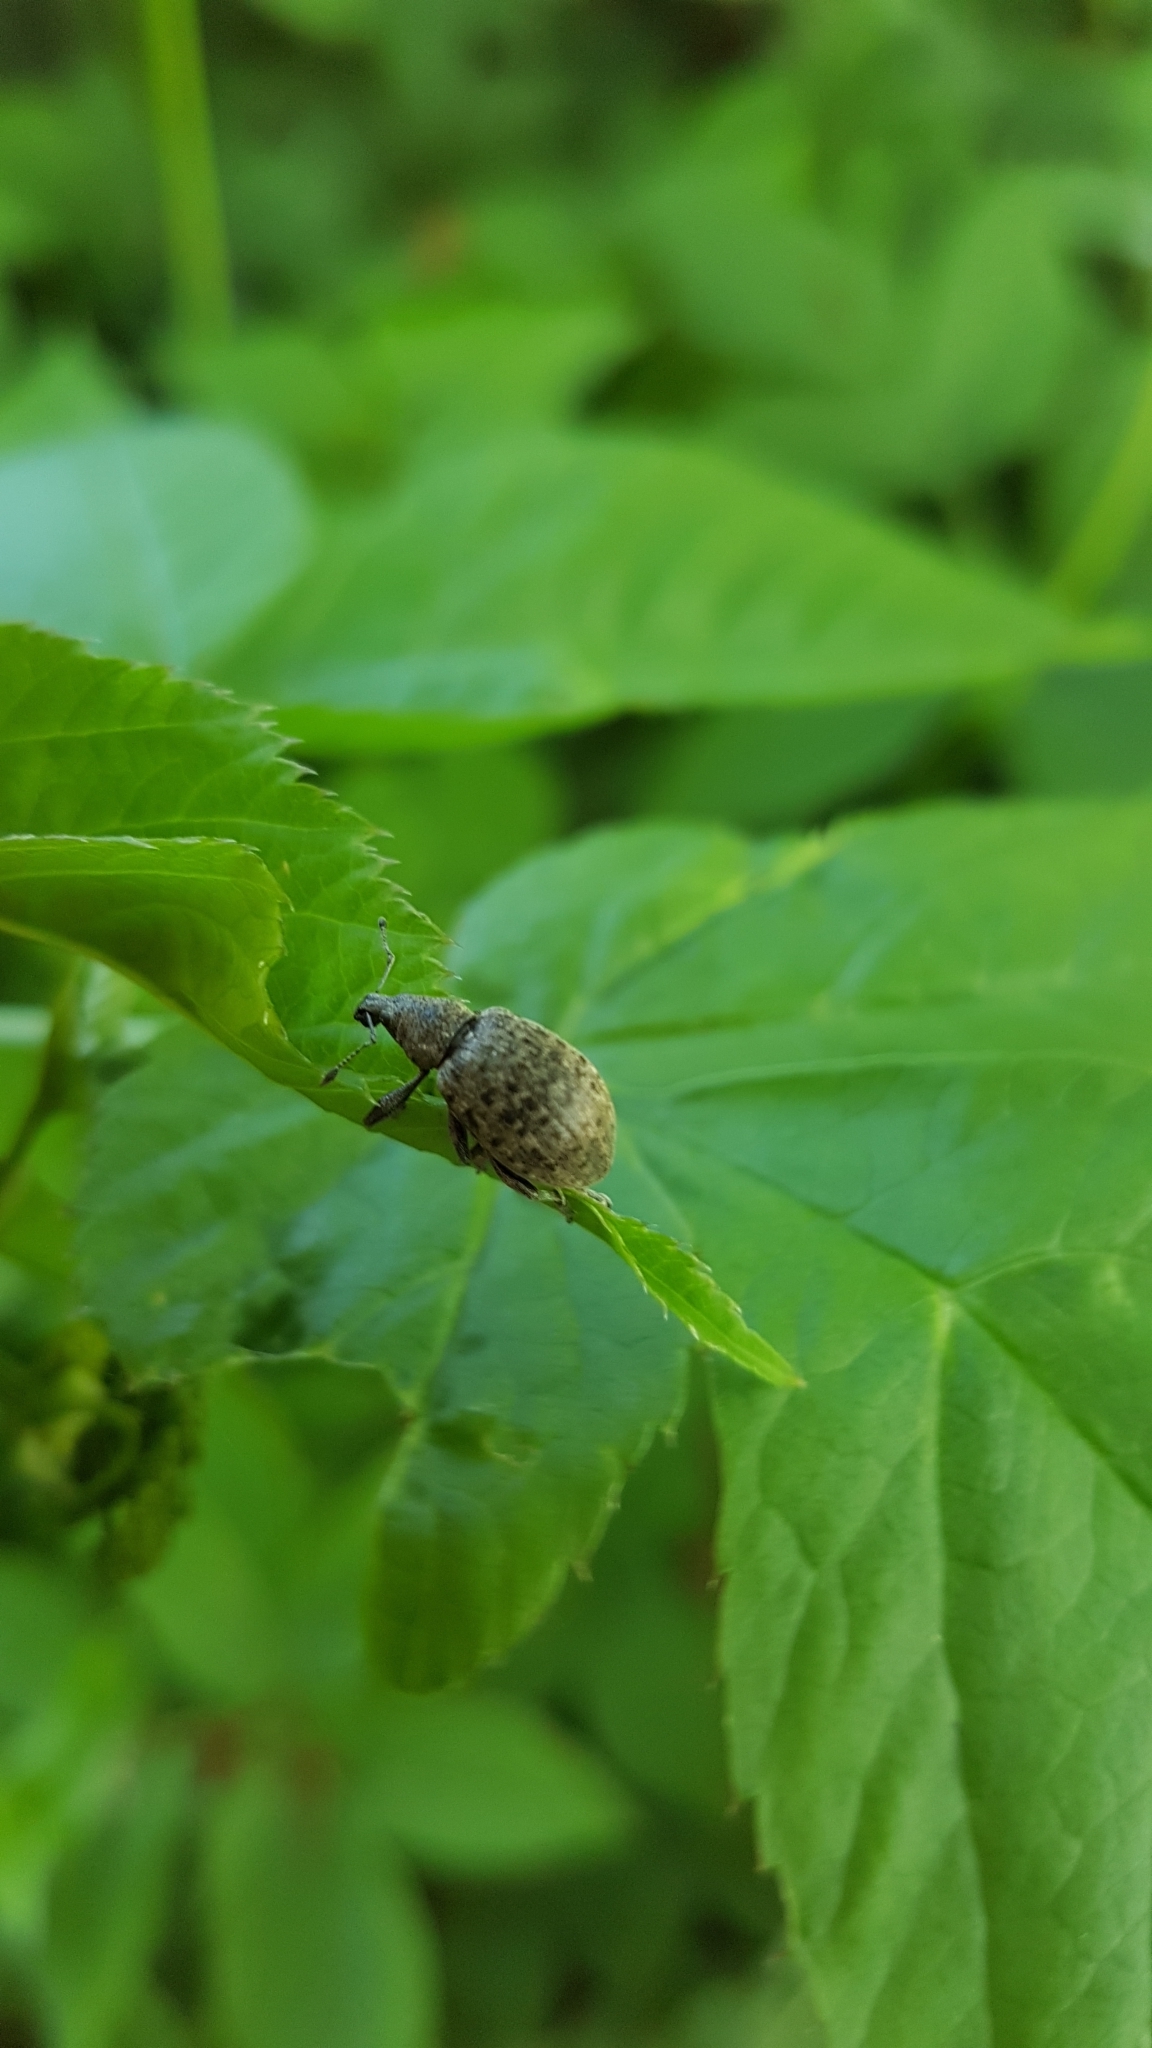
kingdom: Animalia
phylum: Arthropoda
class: Insecta
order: Coleoptera
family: Curculionidae
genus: Liophloeus
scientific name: Liophloeus tessulatus
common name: Weevil
